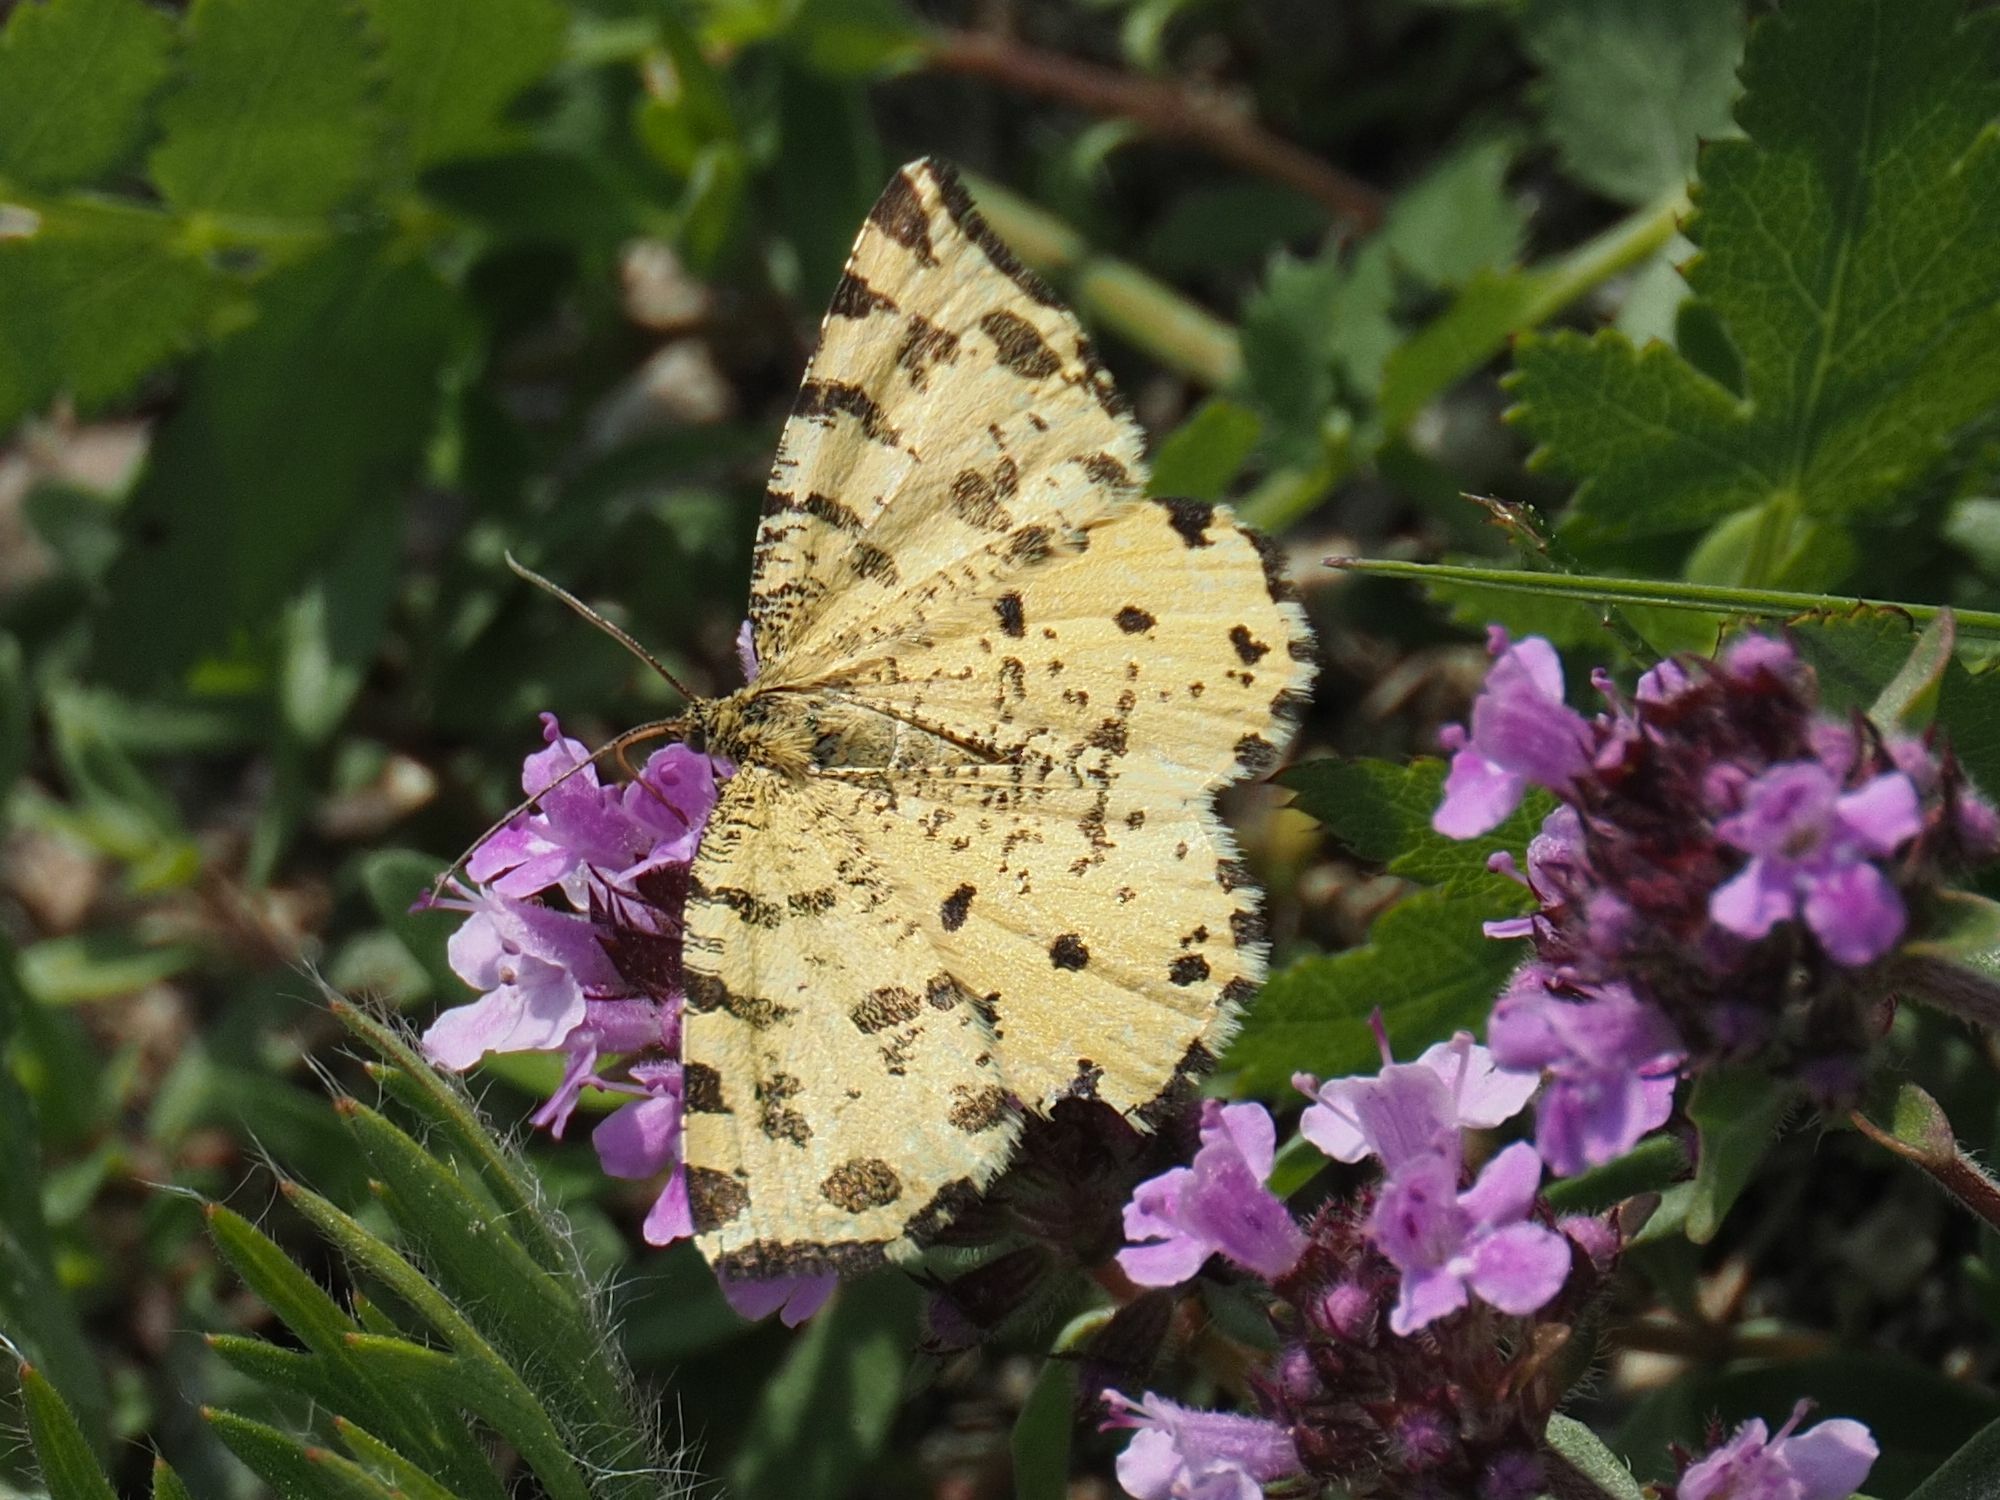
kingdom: Animalia
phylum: Arthropoda
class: Insecta
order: Lepidoptera
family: Geometridae
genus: Pseudopanthera
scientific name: Pseudopanthera macularia
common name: Speckled yellow
